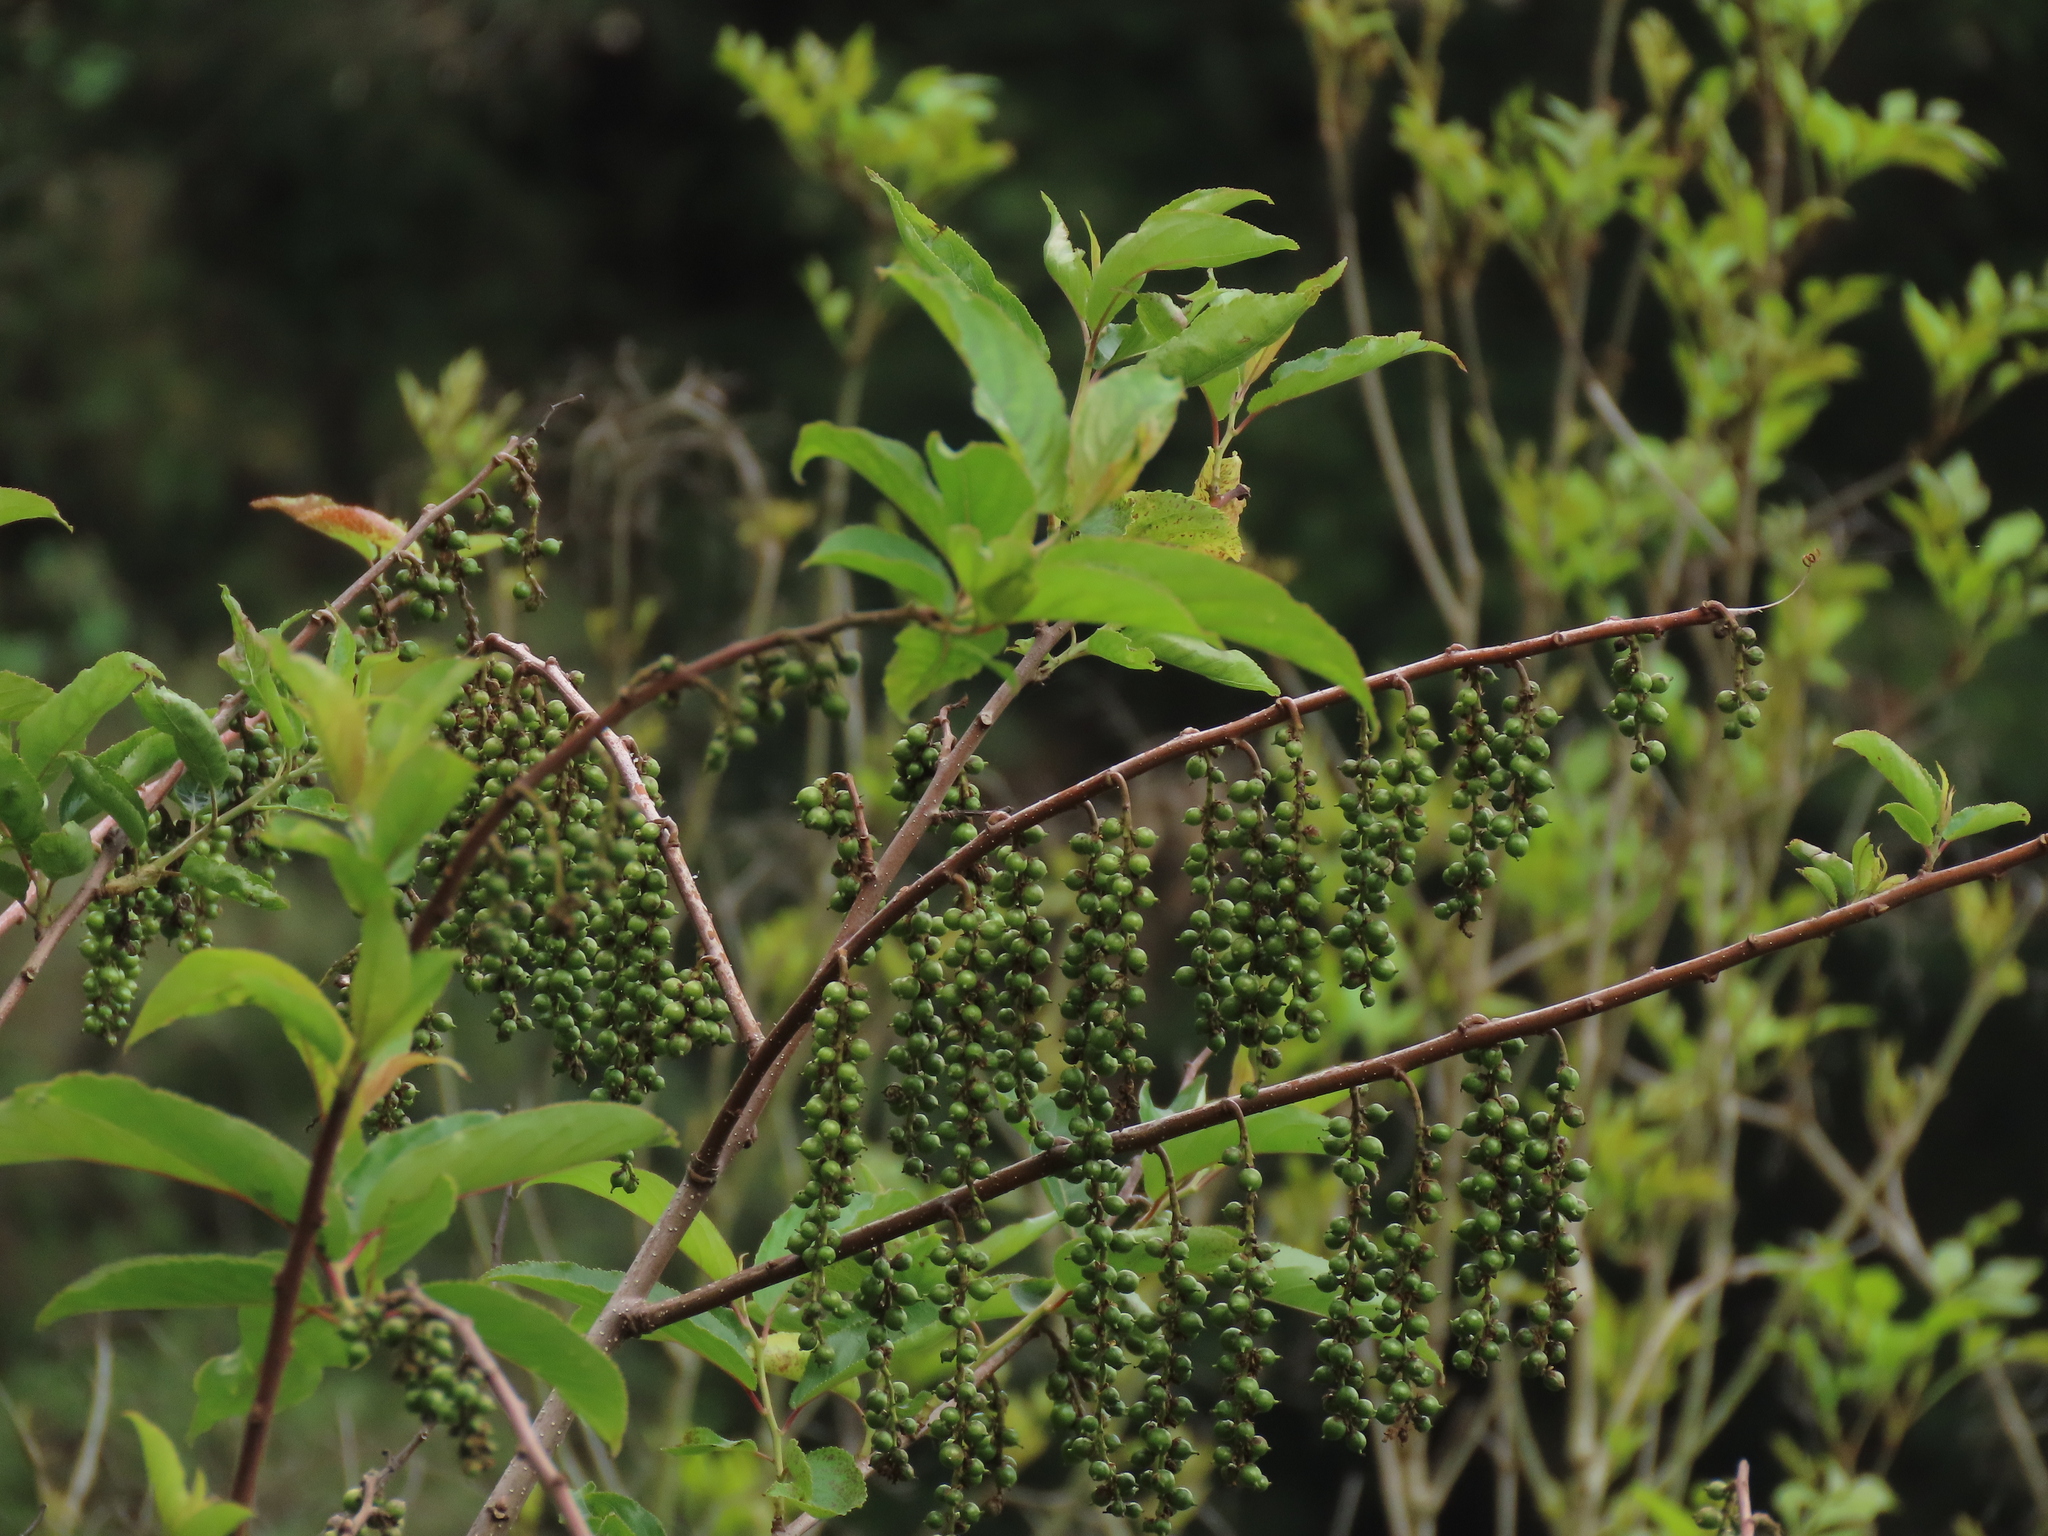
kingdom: Plantae
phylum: Tracheophyta
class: Magnoliopsida
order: Crossosomatales
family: Stachyuraceae
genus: Stachyurus
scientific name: Stachyurus himalaicus
